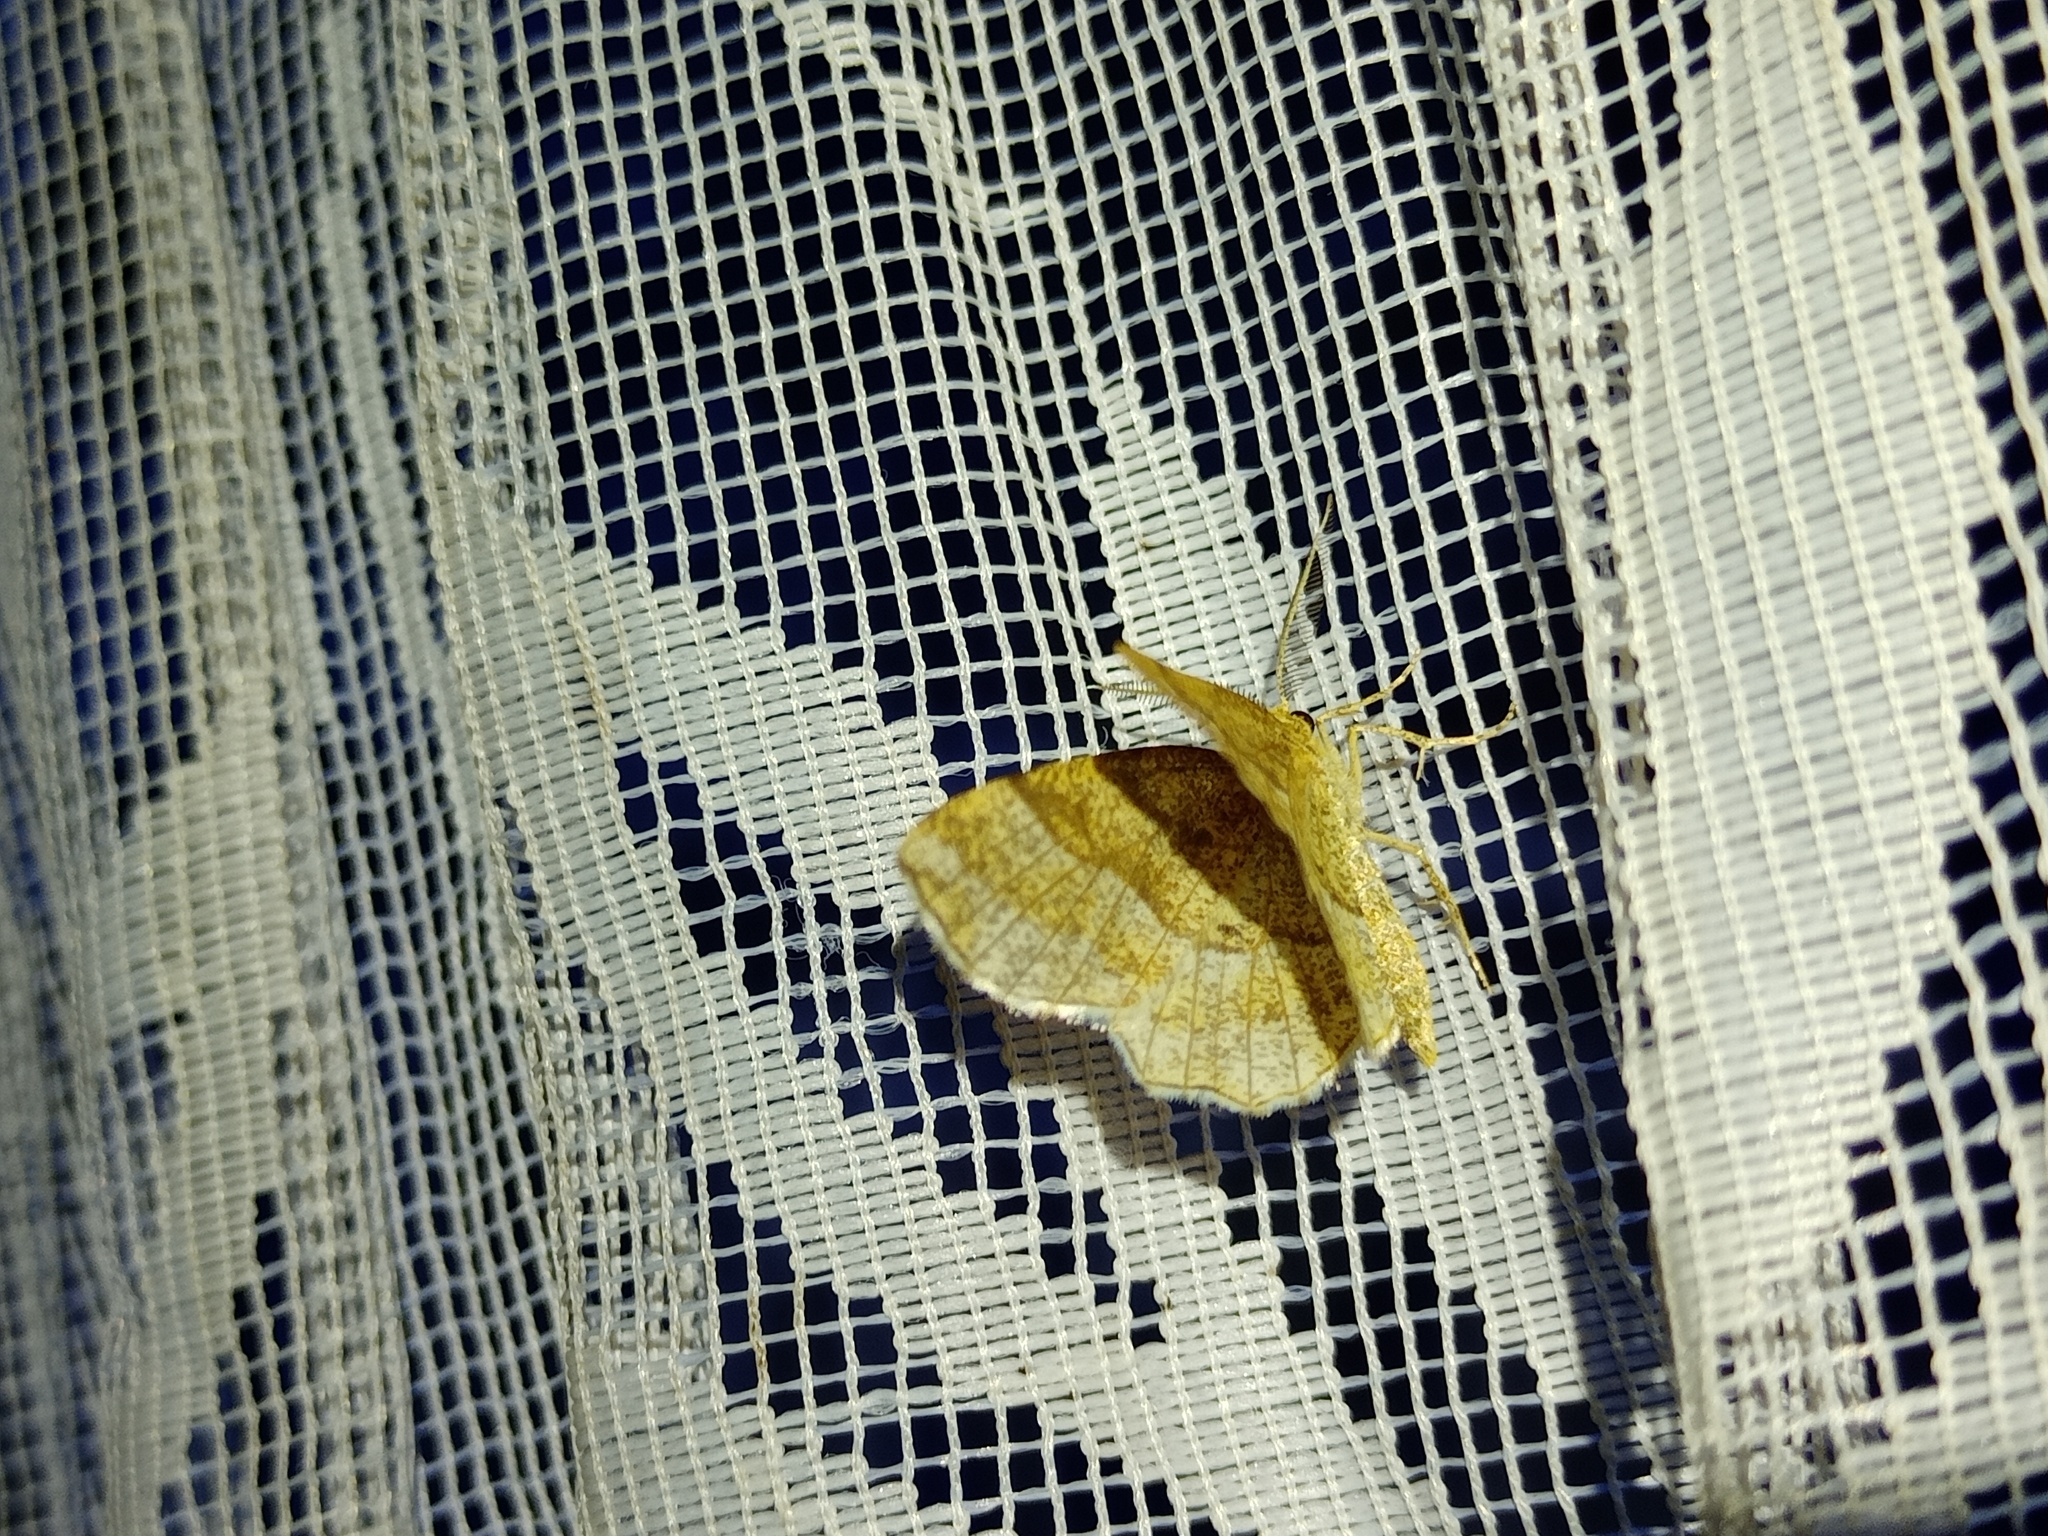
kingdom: Animalia
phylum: Arthropoda
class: Insecta
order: Lepidoptera
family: Geometridae
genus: Cepphis
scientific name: Cepphis advenaria
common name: Little thorn
